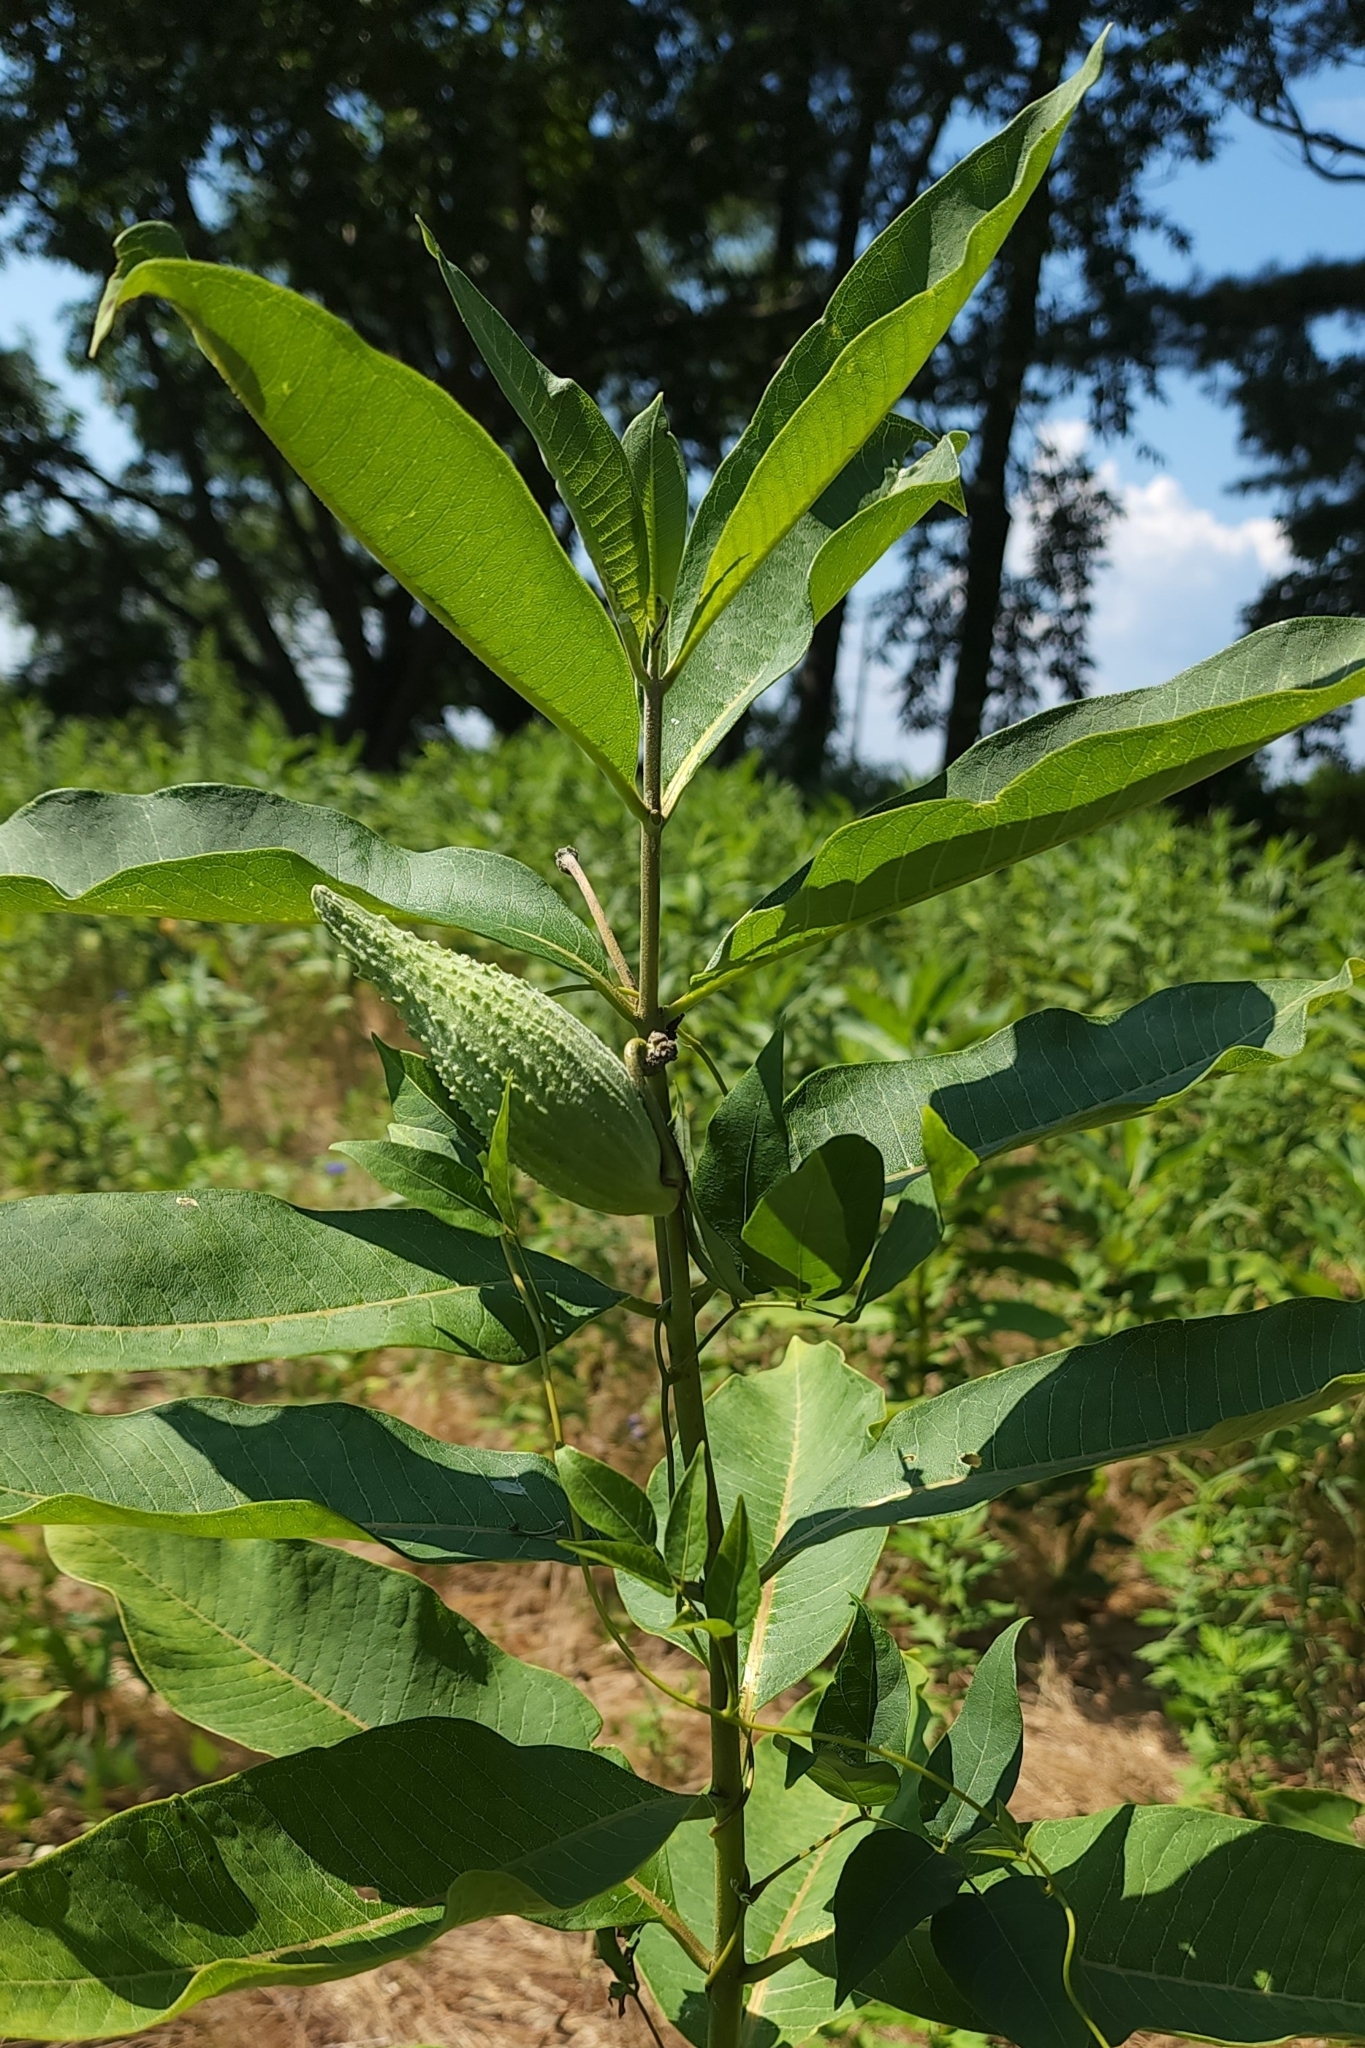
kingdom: Plantae
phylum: Tracheophyta
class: Magnoliopsida
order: Gentianales
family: Apocynaceae
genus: Asclepias
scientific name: Asclepias syriaca
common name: Common milkweed
